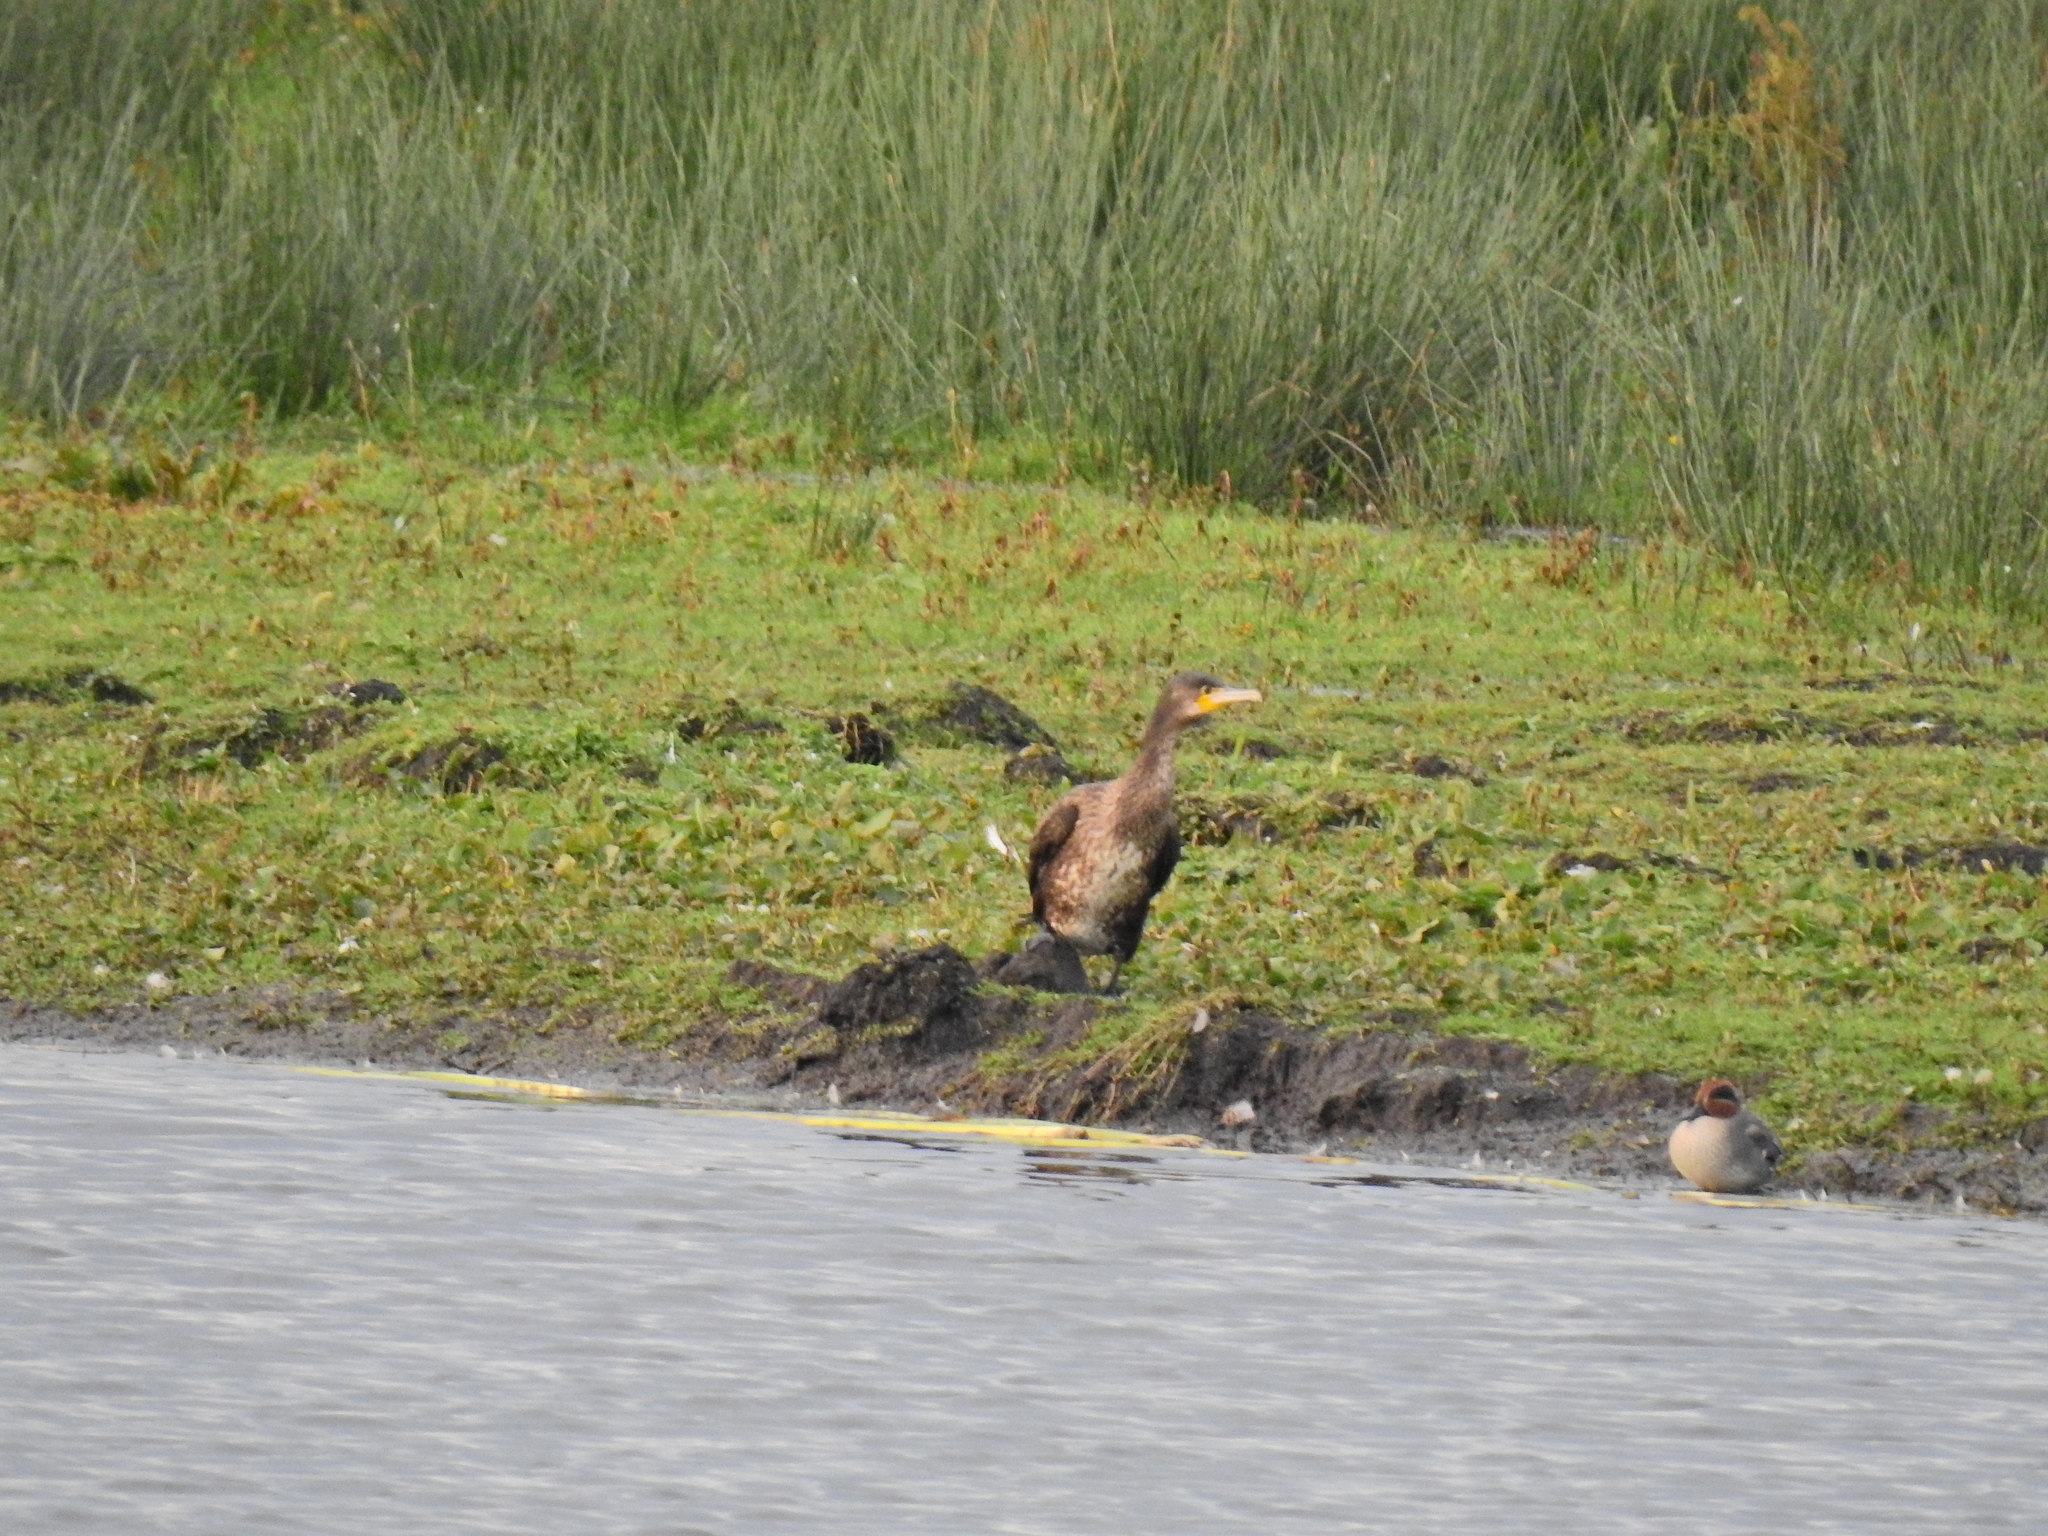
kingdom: Animalia
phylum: Chordata
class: Aves
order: Suliformes
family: Phalacrocoracidae
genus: Phalacrocorax
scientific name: Phalacrocorax carbo
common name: Great cormorant
